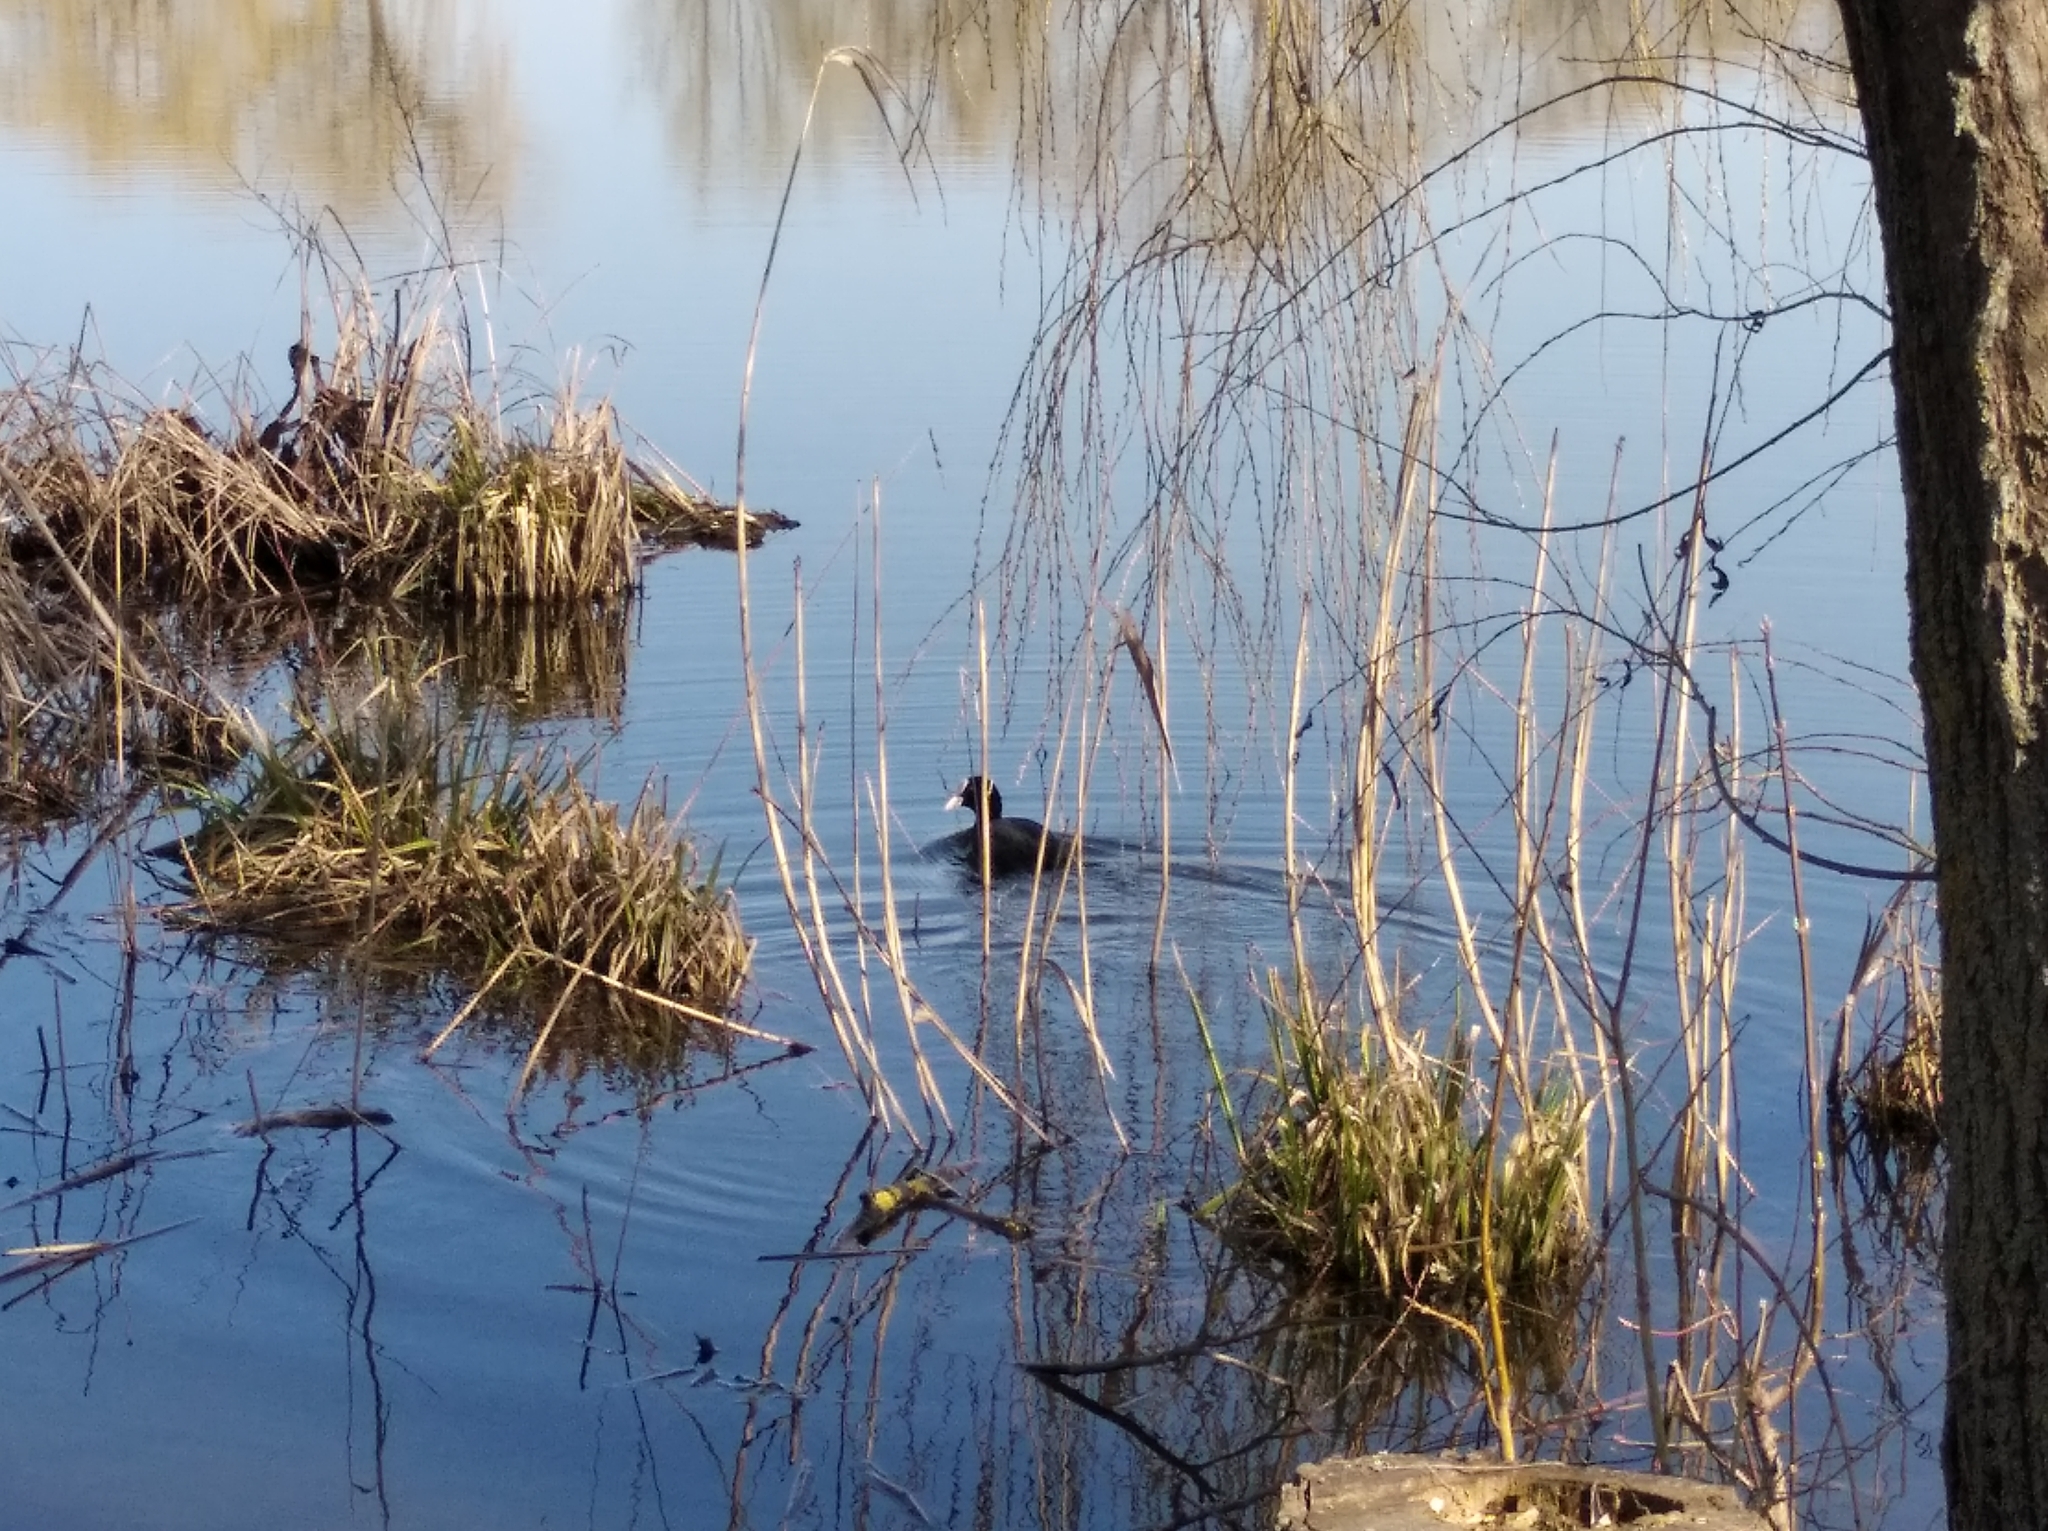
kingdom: Animalia
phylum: Chordata
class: Aves
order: Gruiformes
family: Rallidae
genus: Fulica
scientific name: Fulica atra
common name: Eurasian coot
